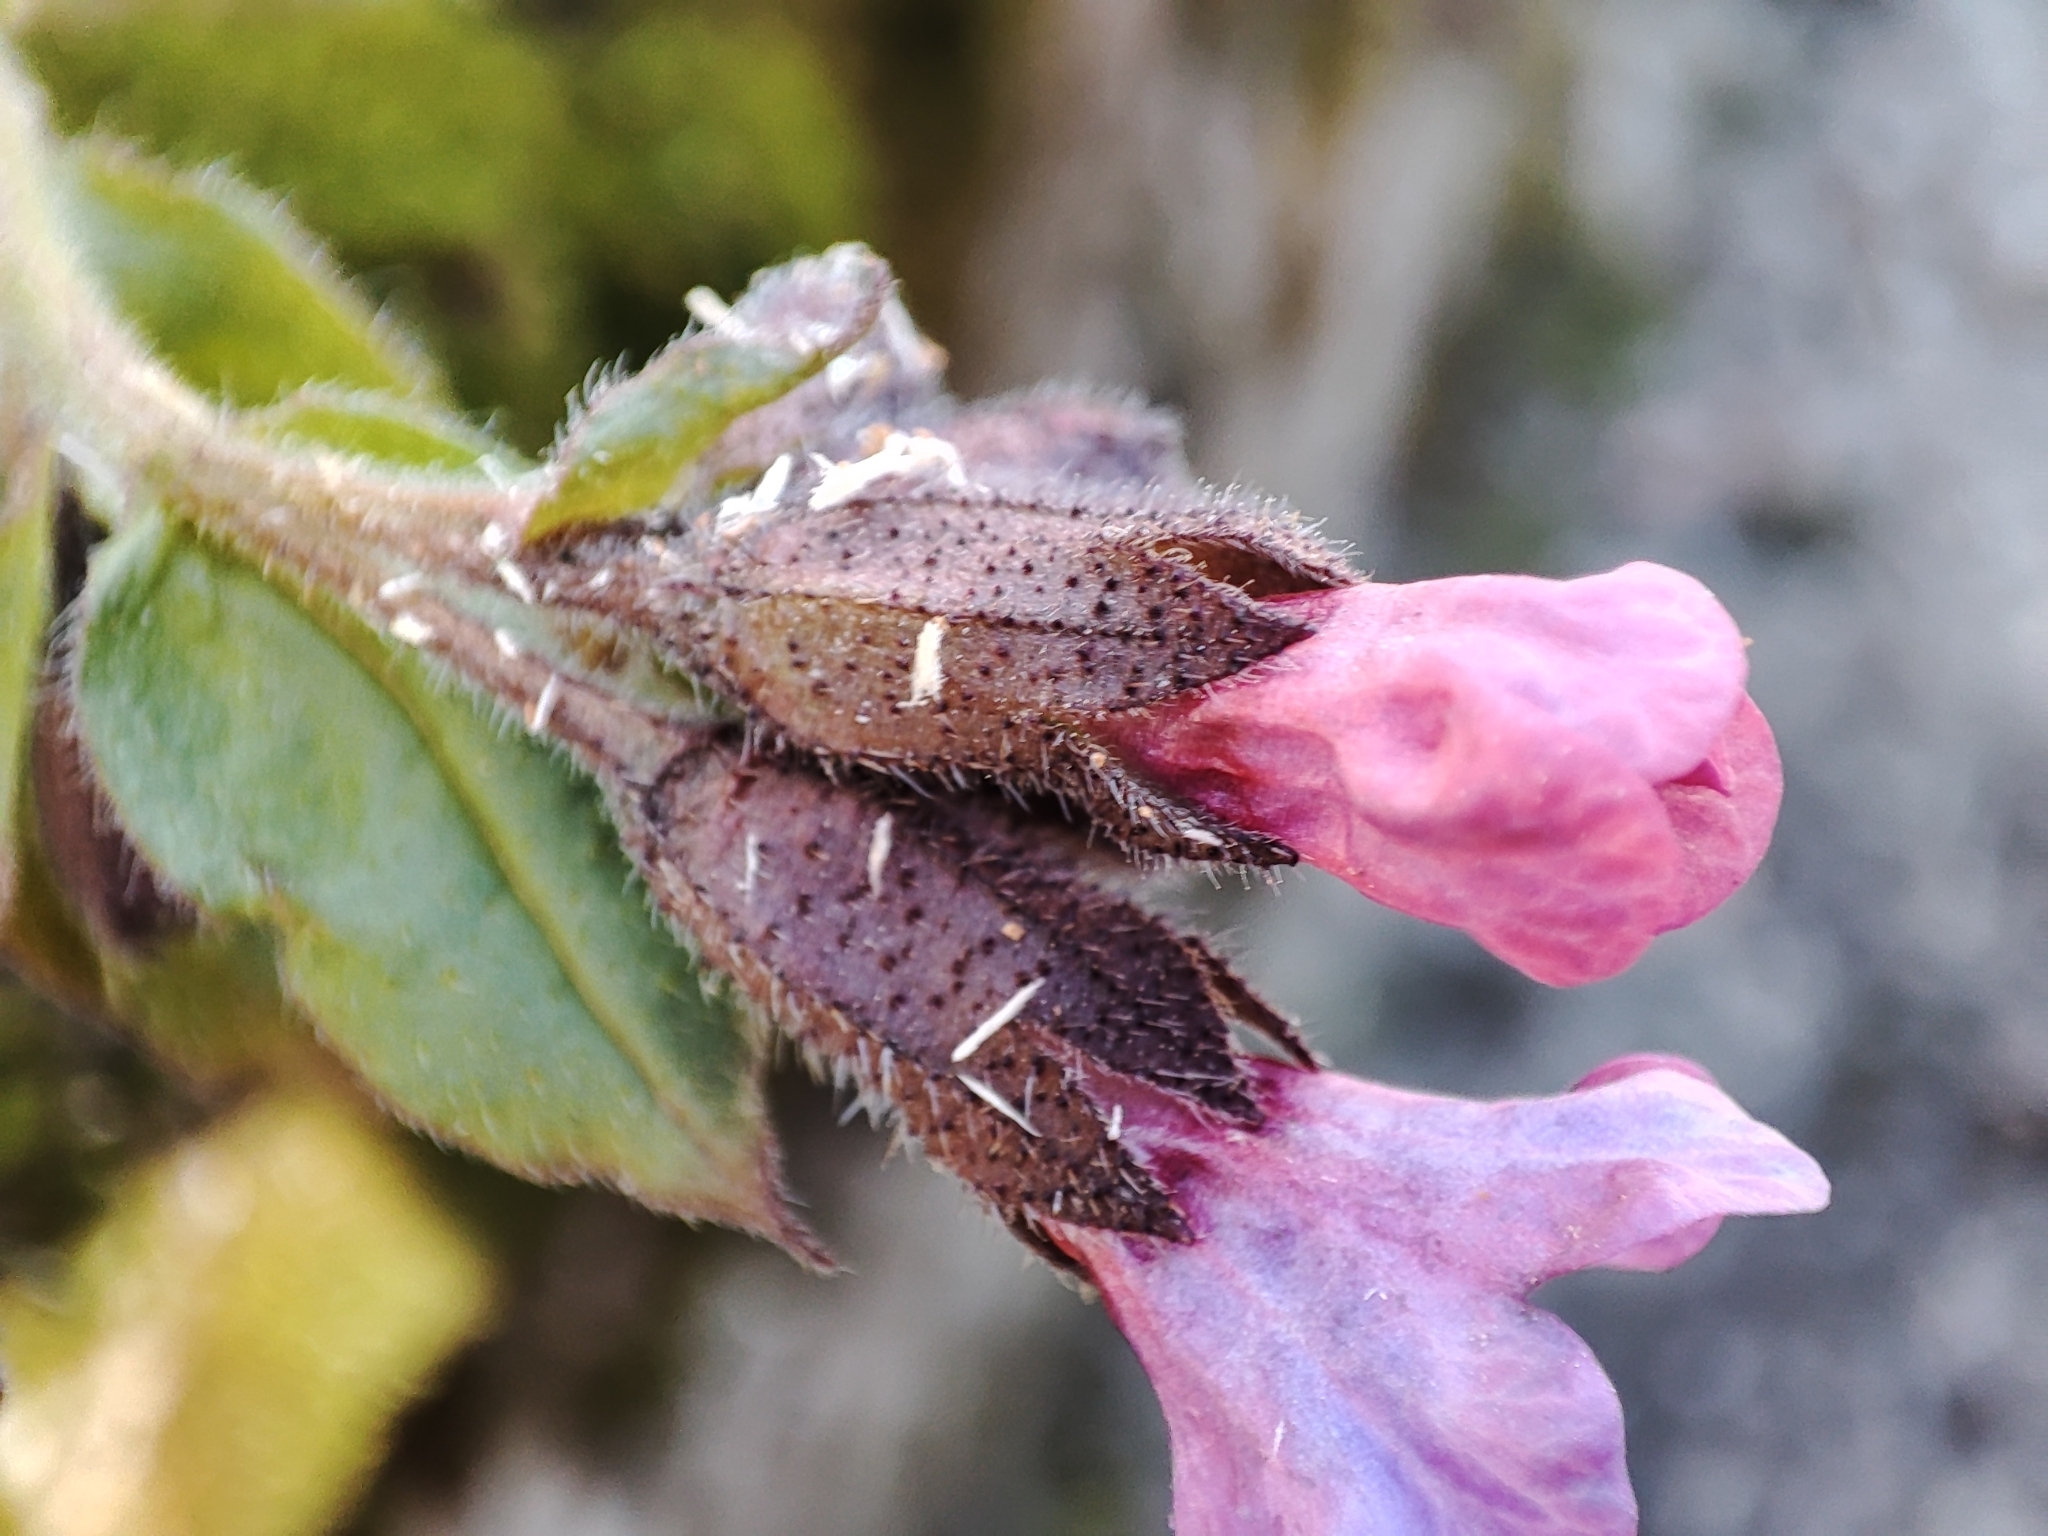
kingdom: Plantae
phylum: Tracheophyta
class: Magnoliopsida
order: Boraginales
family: Boraginaceae
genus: Pulmonaria
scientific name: Pulmonaria obscura
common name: Suffolk lungwort
